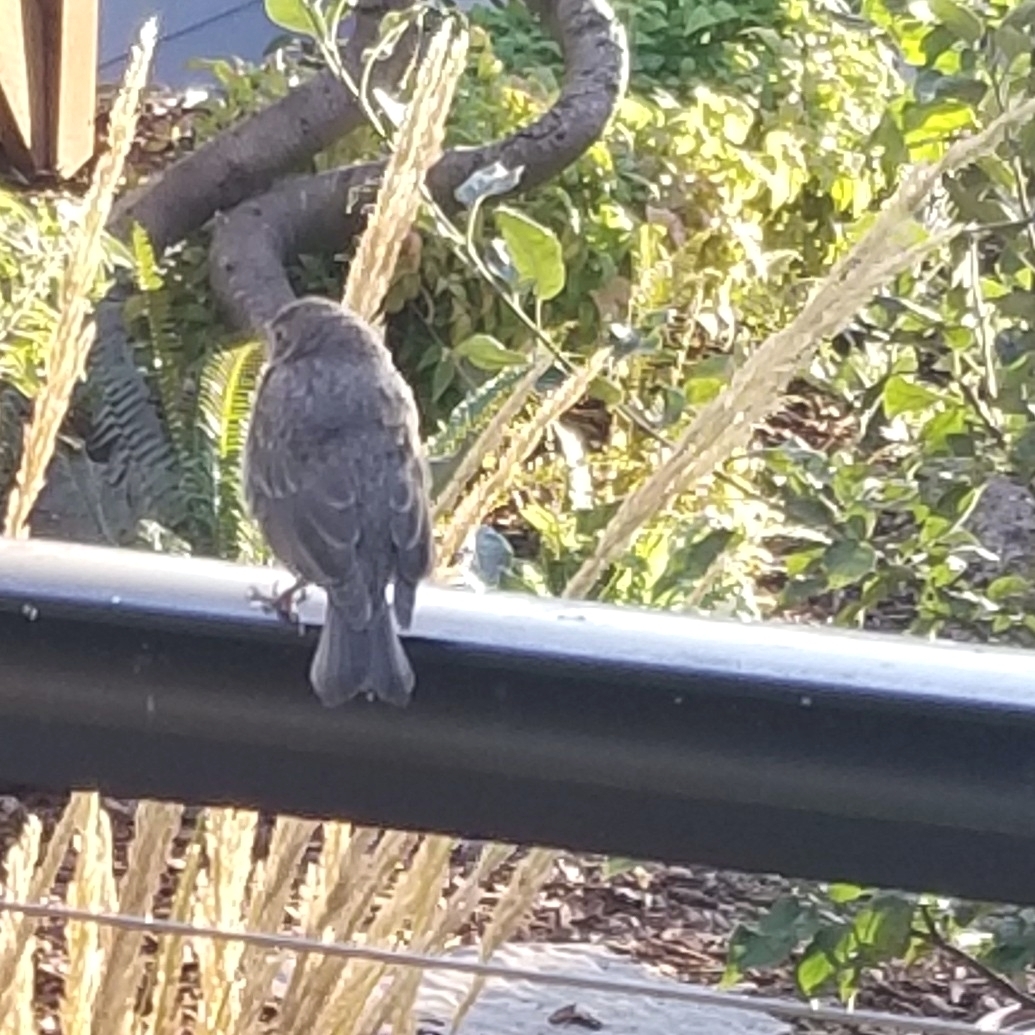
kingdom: Animalia
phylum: Chordata
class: Aves
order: Passeriformes
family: Icteridae
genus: Molothrus
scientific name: Molothrus ater
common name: Brown-headed cowbird
